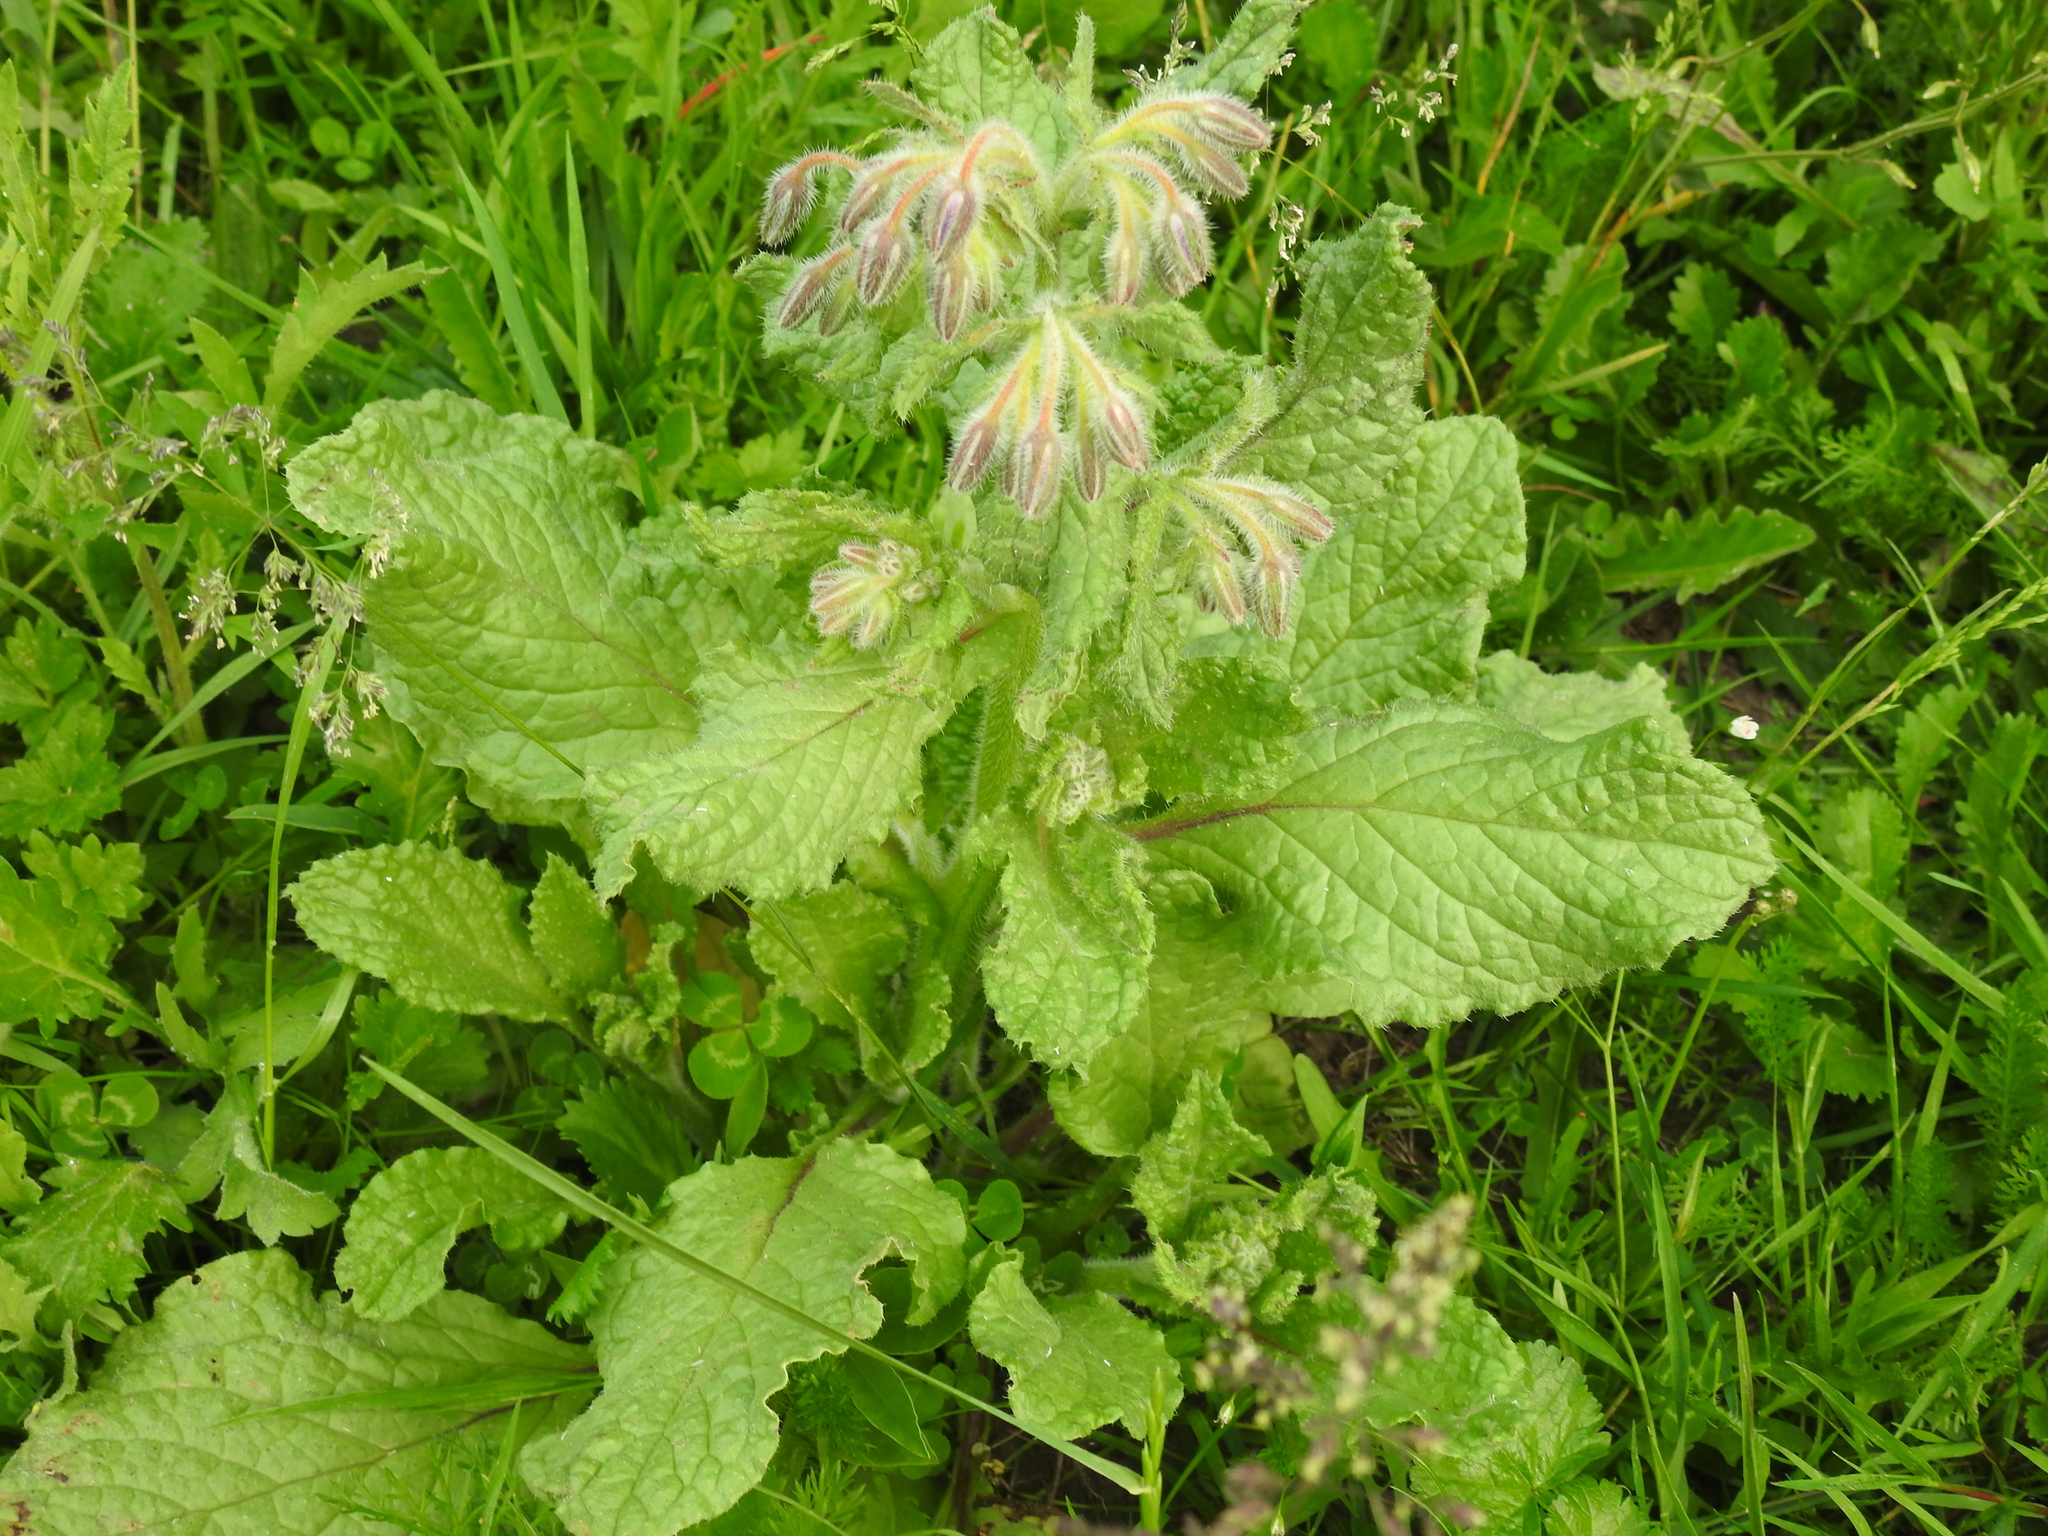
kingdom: Plantae
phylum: Tracheophyta
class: Magnoliopsida
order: Boraginales
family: Boraginaceae
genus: Borago
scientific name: Borago officinalis
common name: Borage
